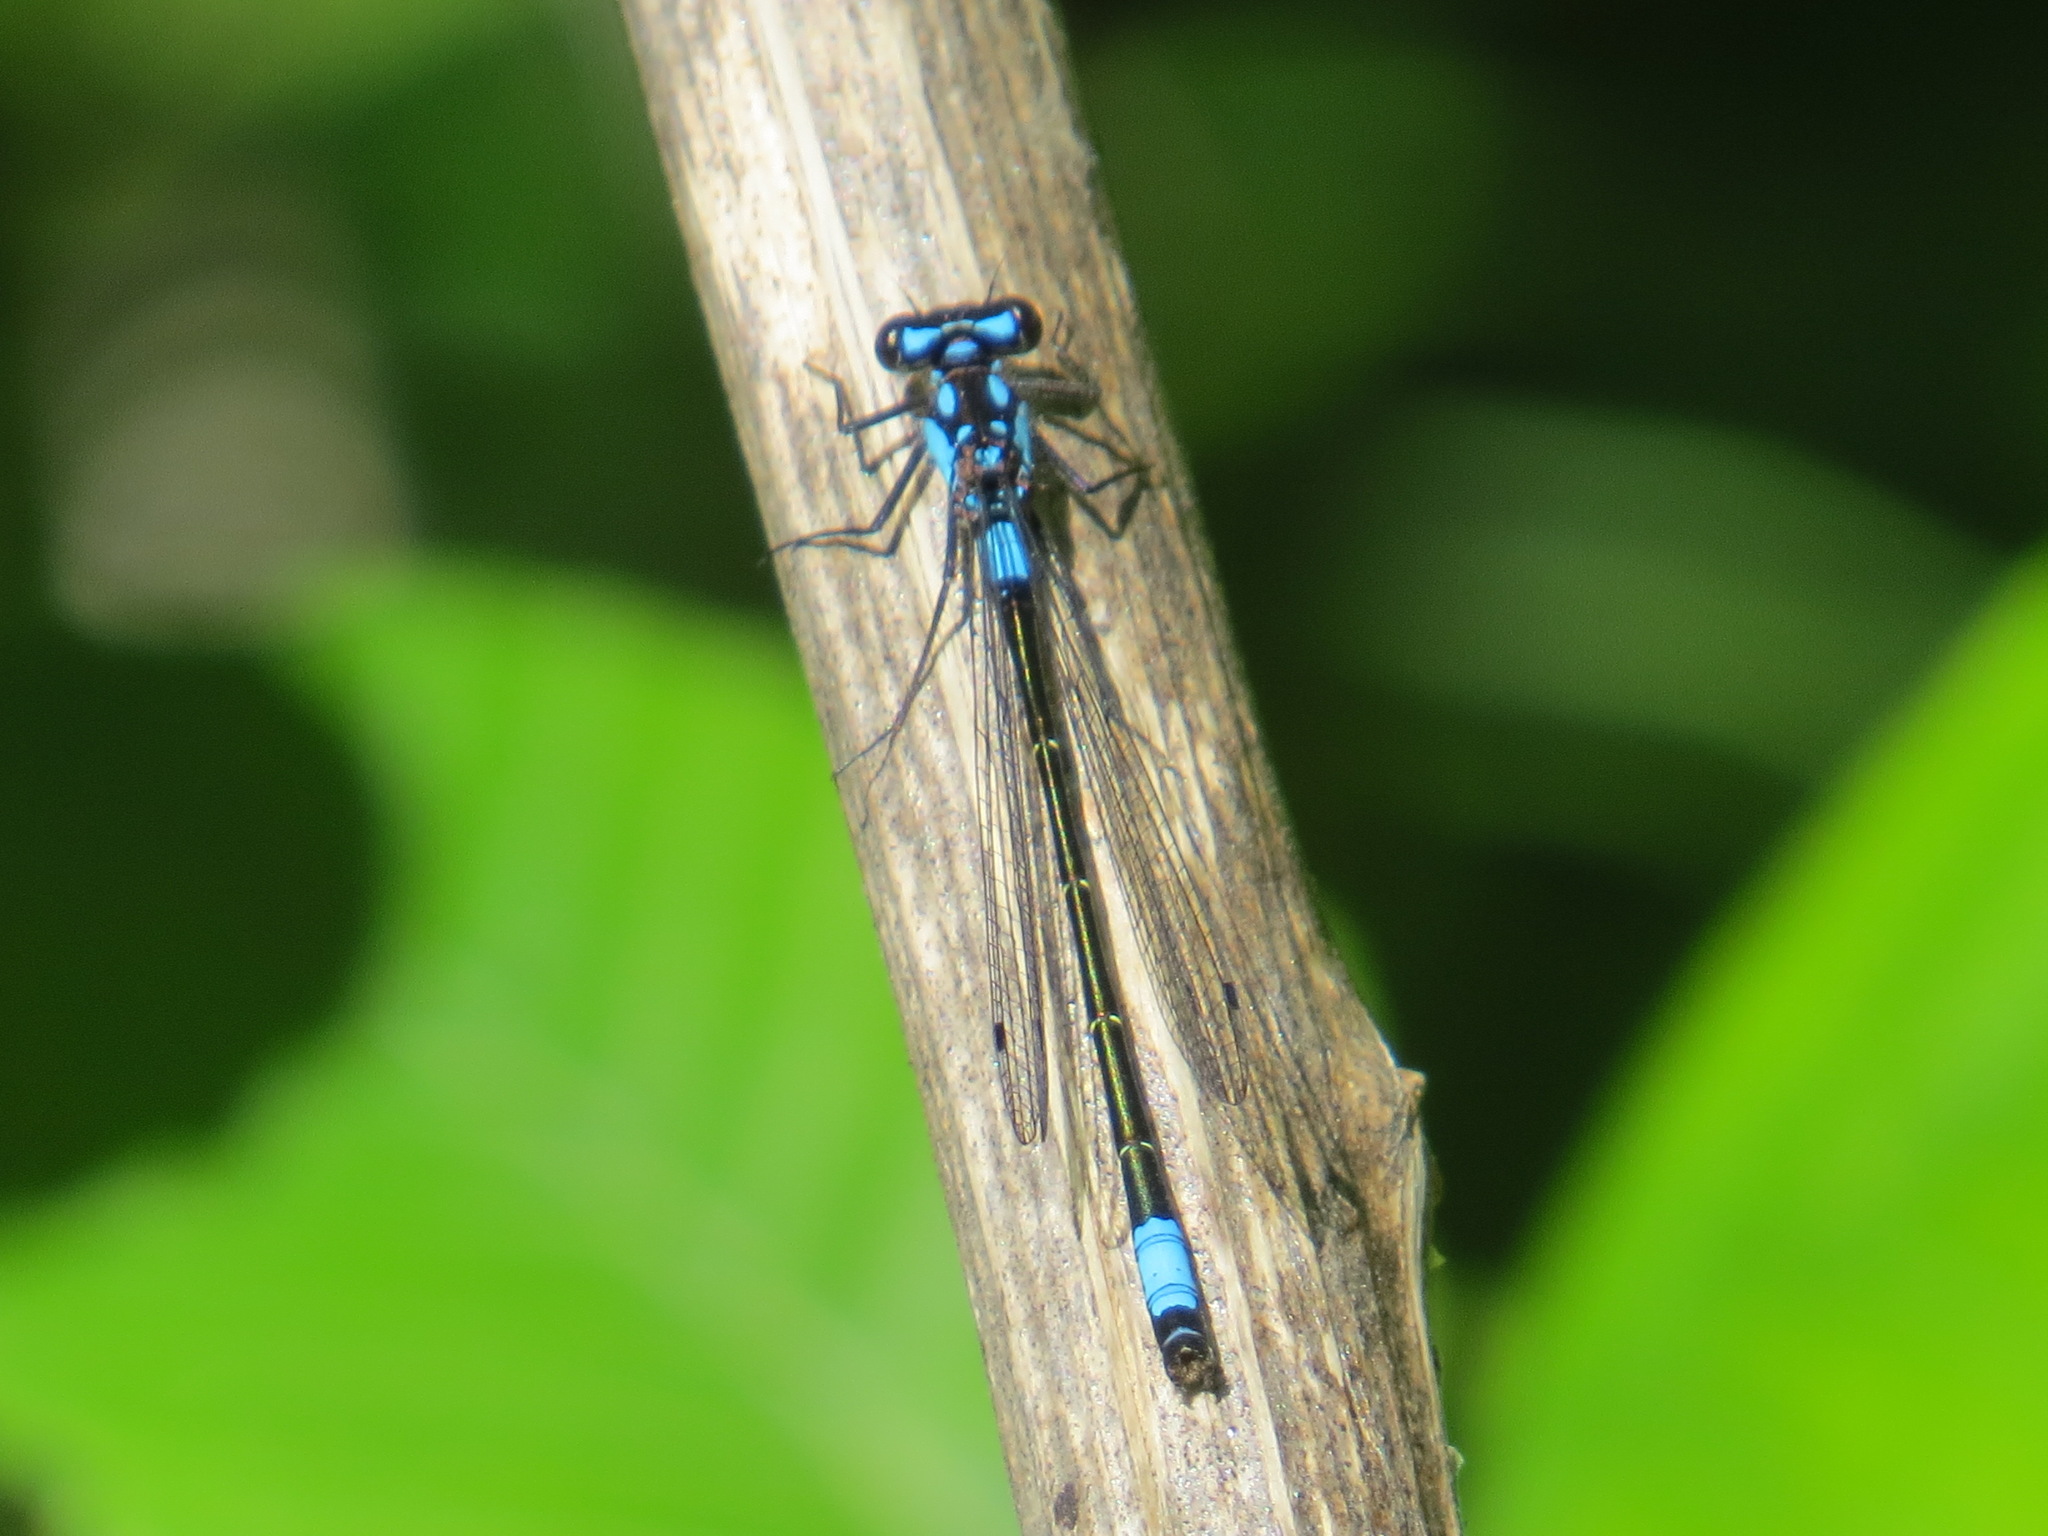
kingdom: Animalia
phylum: Arthropoda
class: Insecta
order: Odonata
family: Coenagrionidae
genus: Zoniagrion
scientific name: Zoniagrion exclamationis
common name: Exclamation damsel
